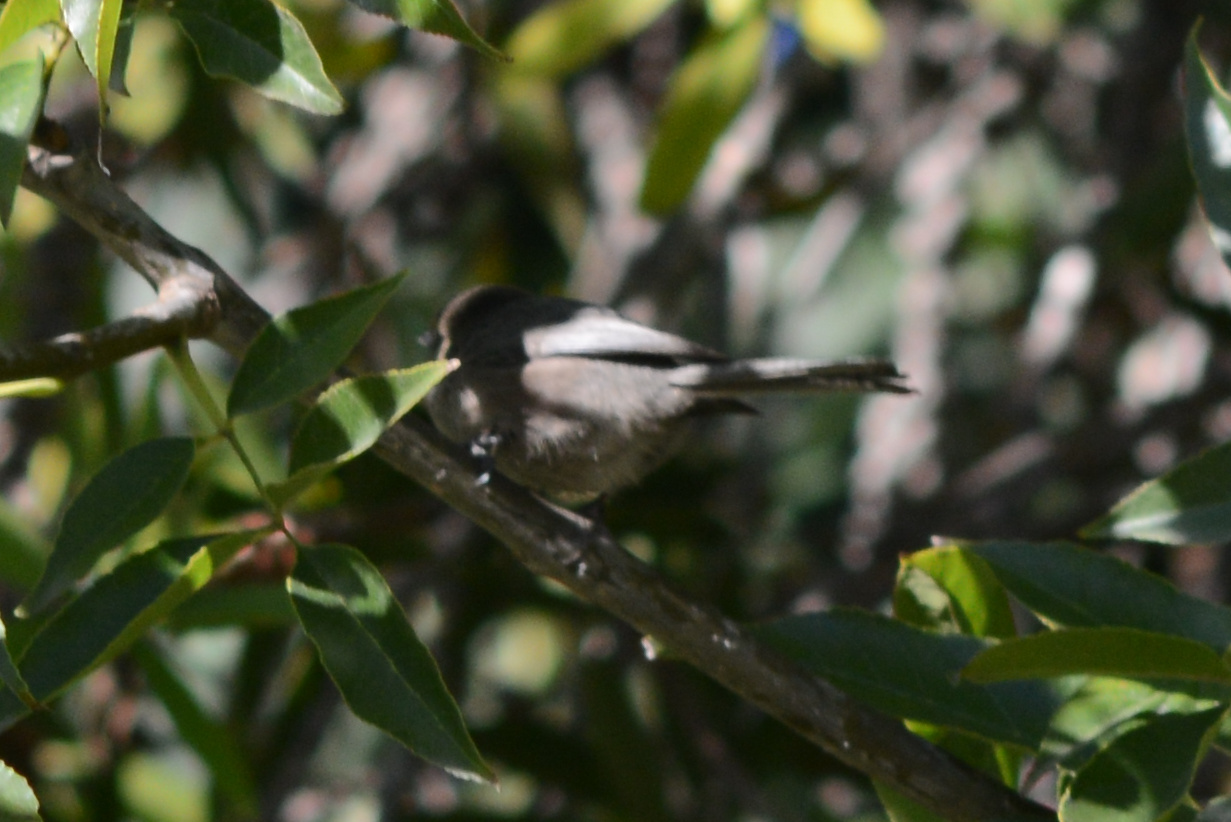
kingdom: Animalia
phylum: Chordata
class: Aves
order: Passeriformes
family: Aegithalidae
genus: Psaltriparus
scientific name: Psaltriparus minimus
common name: American bushtit
